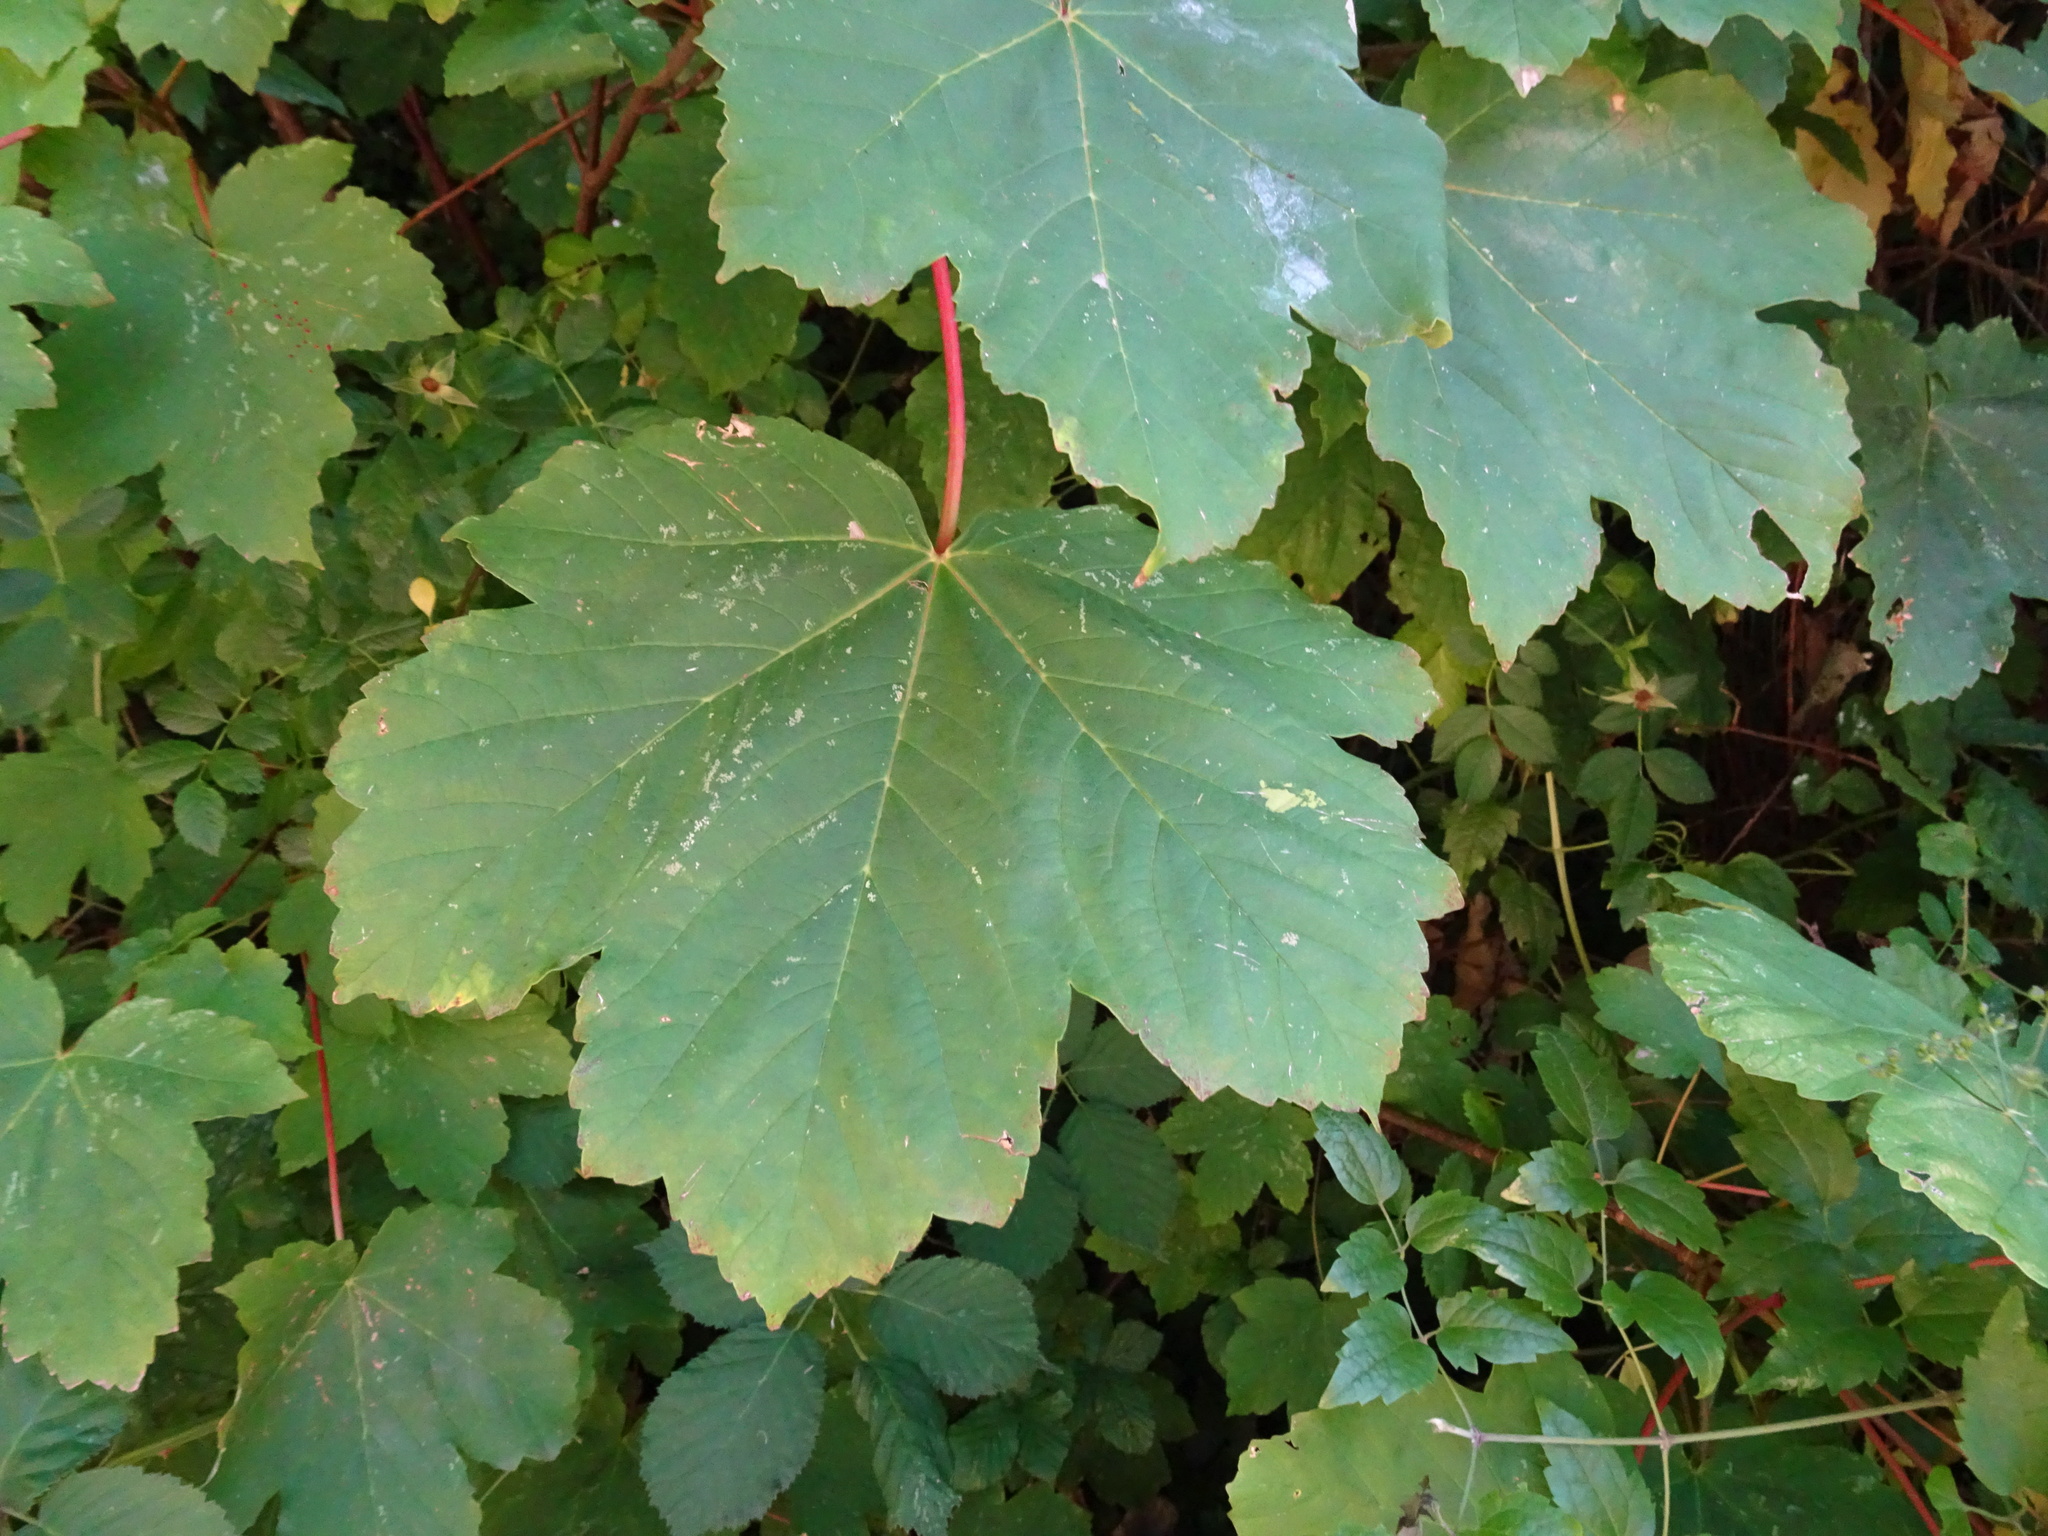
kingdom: Plantae
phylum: Tracheophyta
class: Magnoliopsida
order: Sapindales
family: Sapindaceae
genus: Acer
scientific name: Acer pseudoplatanus
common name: Sycamore
